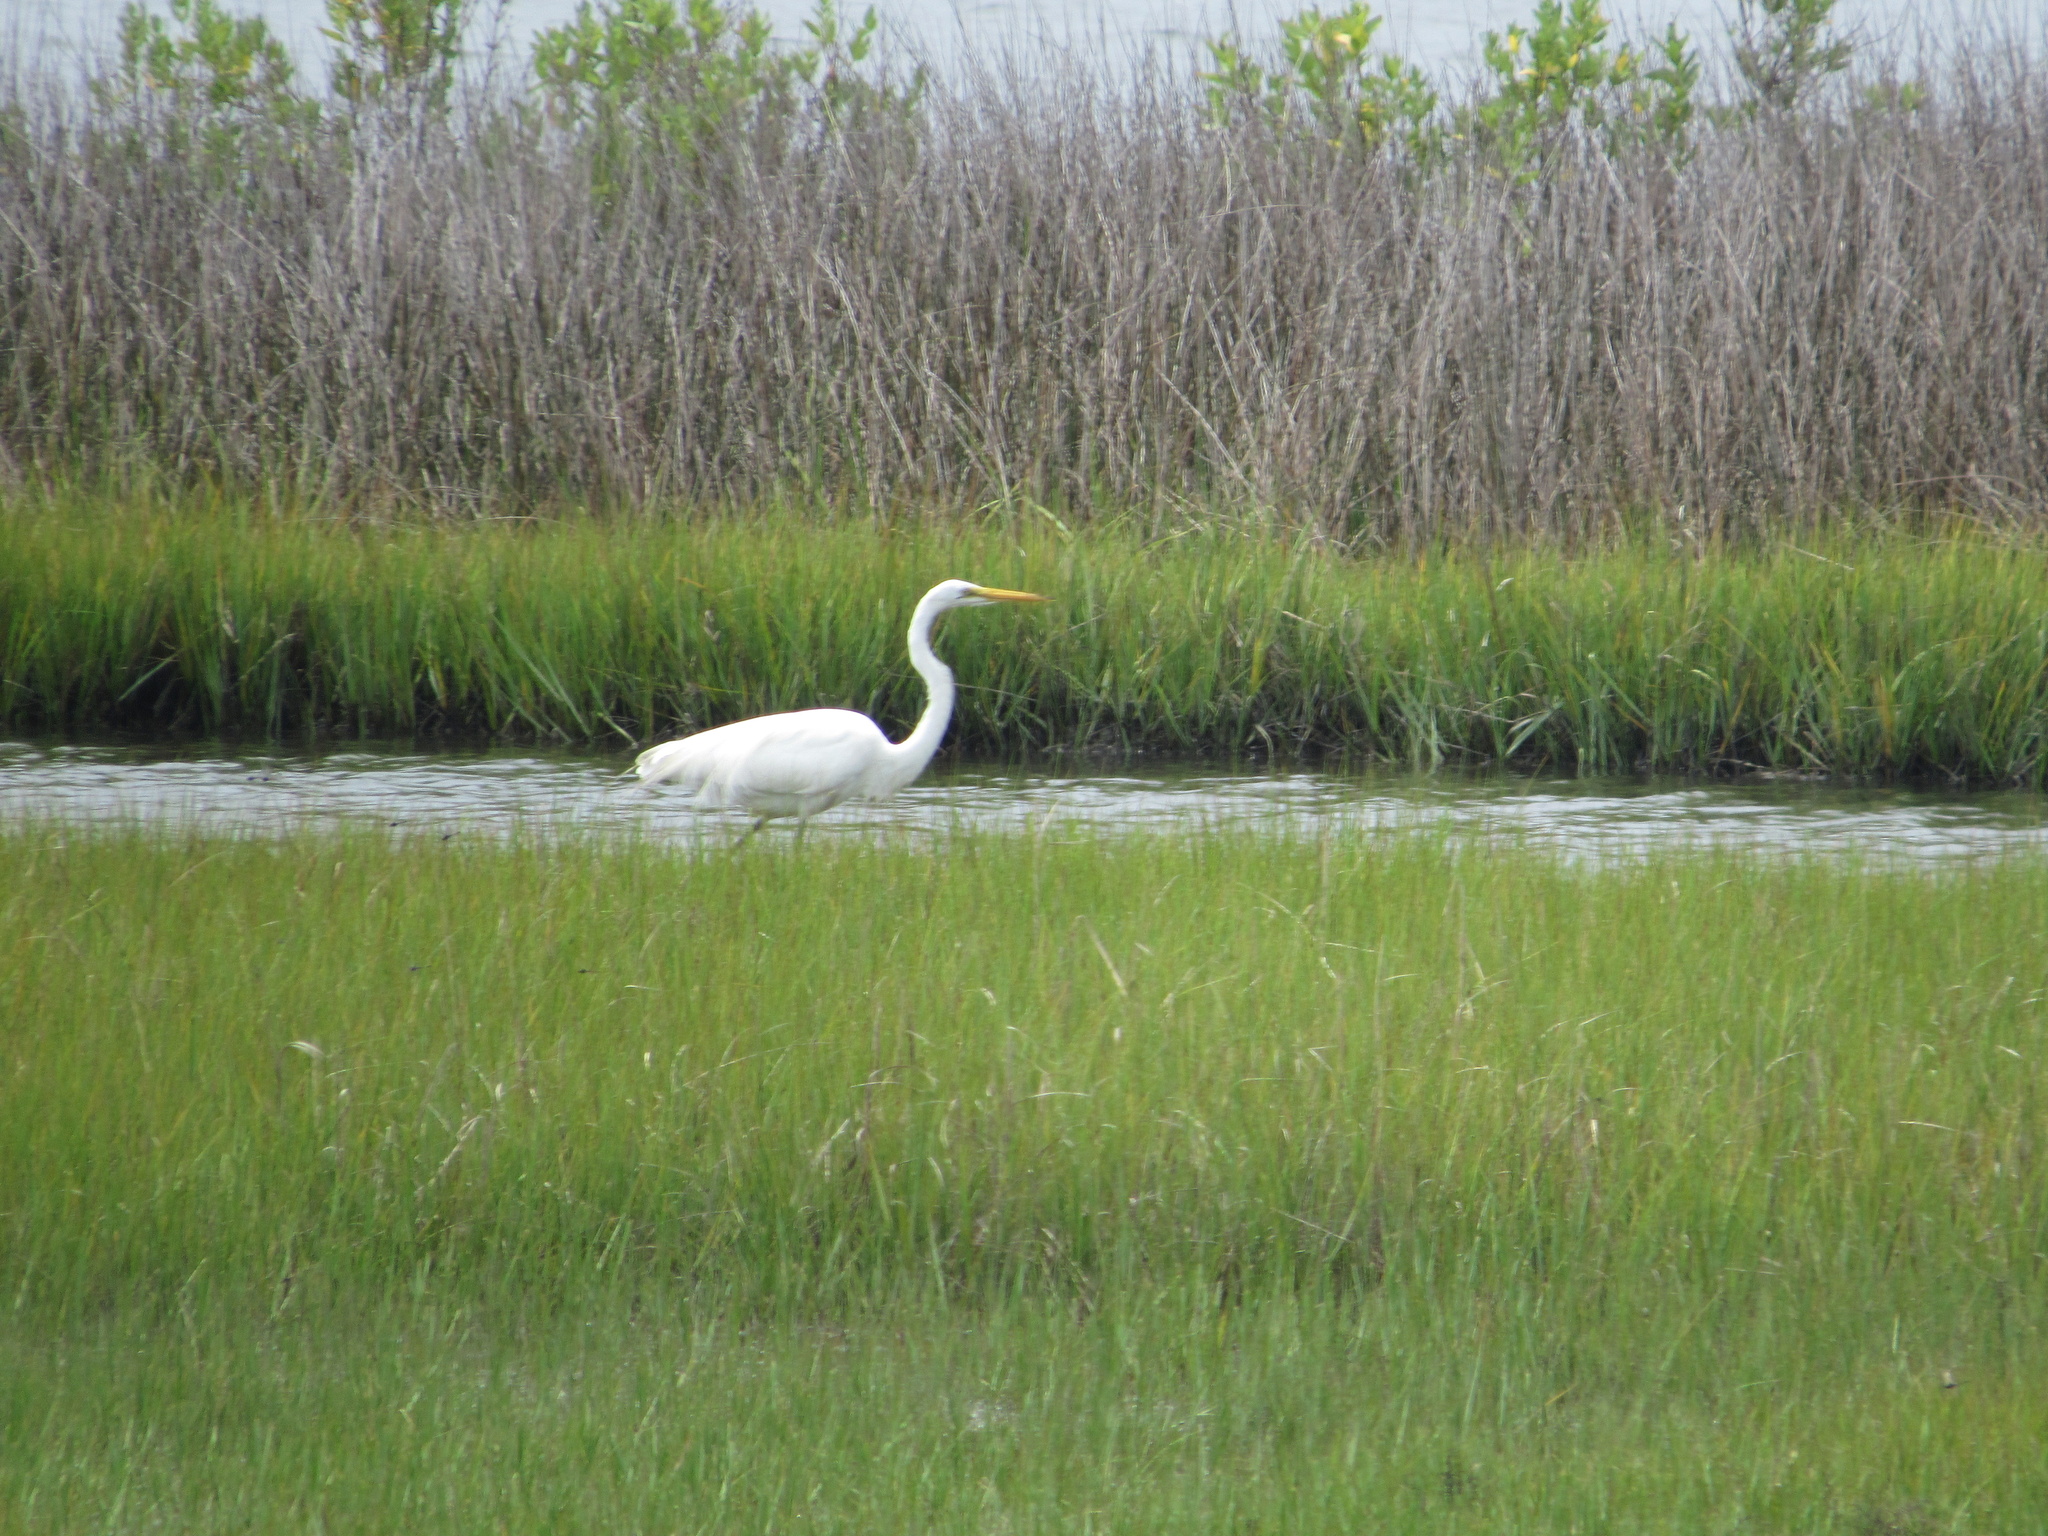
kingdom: Animalia
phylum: Chordata
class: Aves
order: Pelecaniformes
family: Ardeidae
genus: Ardea
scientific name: Ardea alba
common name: Great egret
